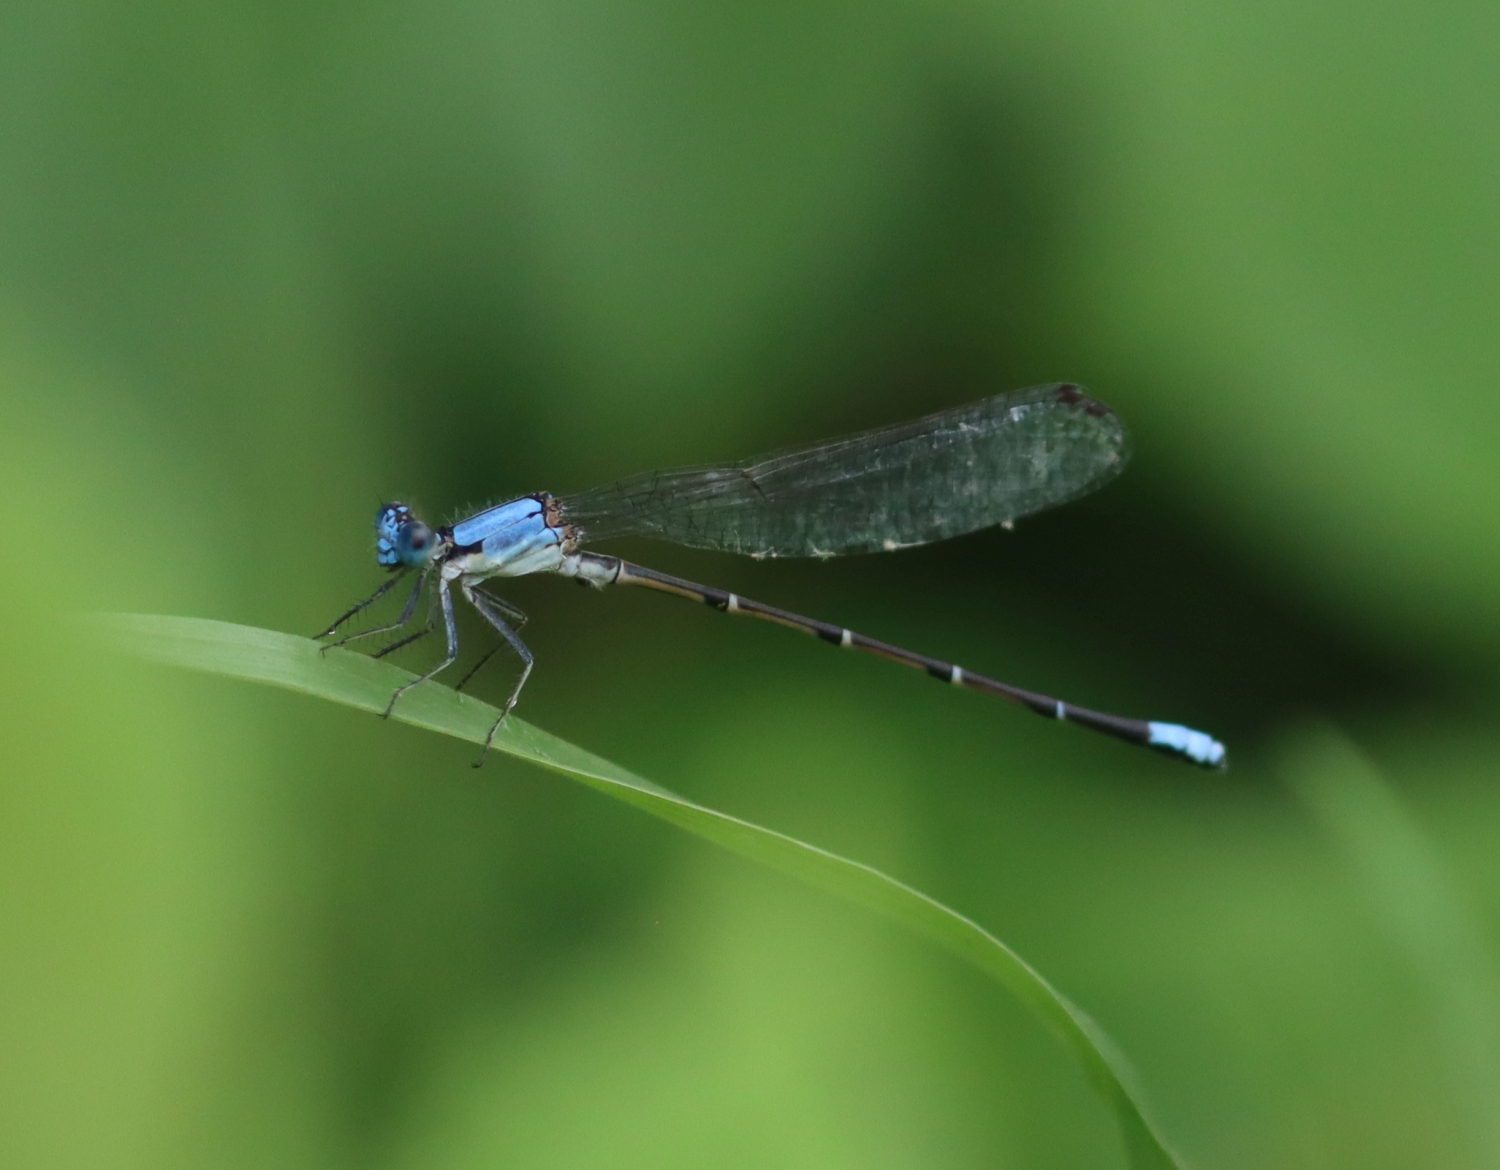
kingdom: Animalia
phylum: Arthropoda
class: Insecta
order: Odonata
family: Coenagrionidae
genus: Argia
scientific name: Argia apicalis
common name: Blue-fronted dancer
